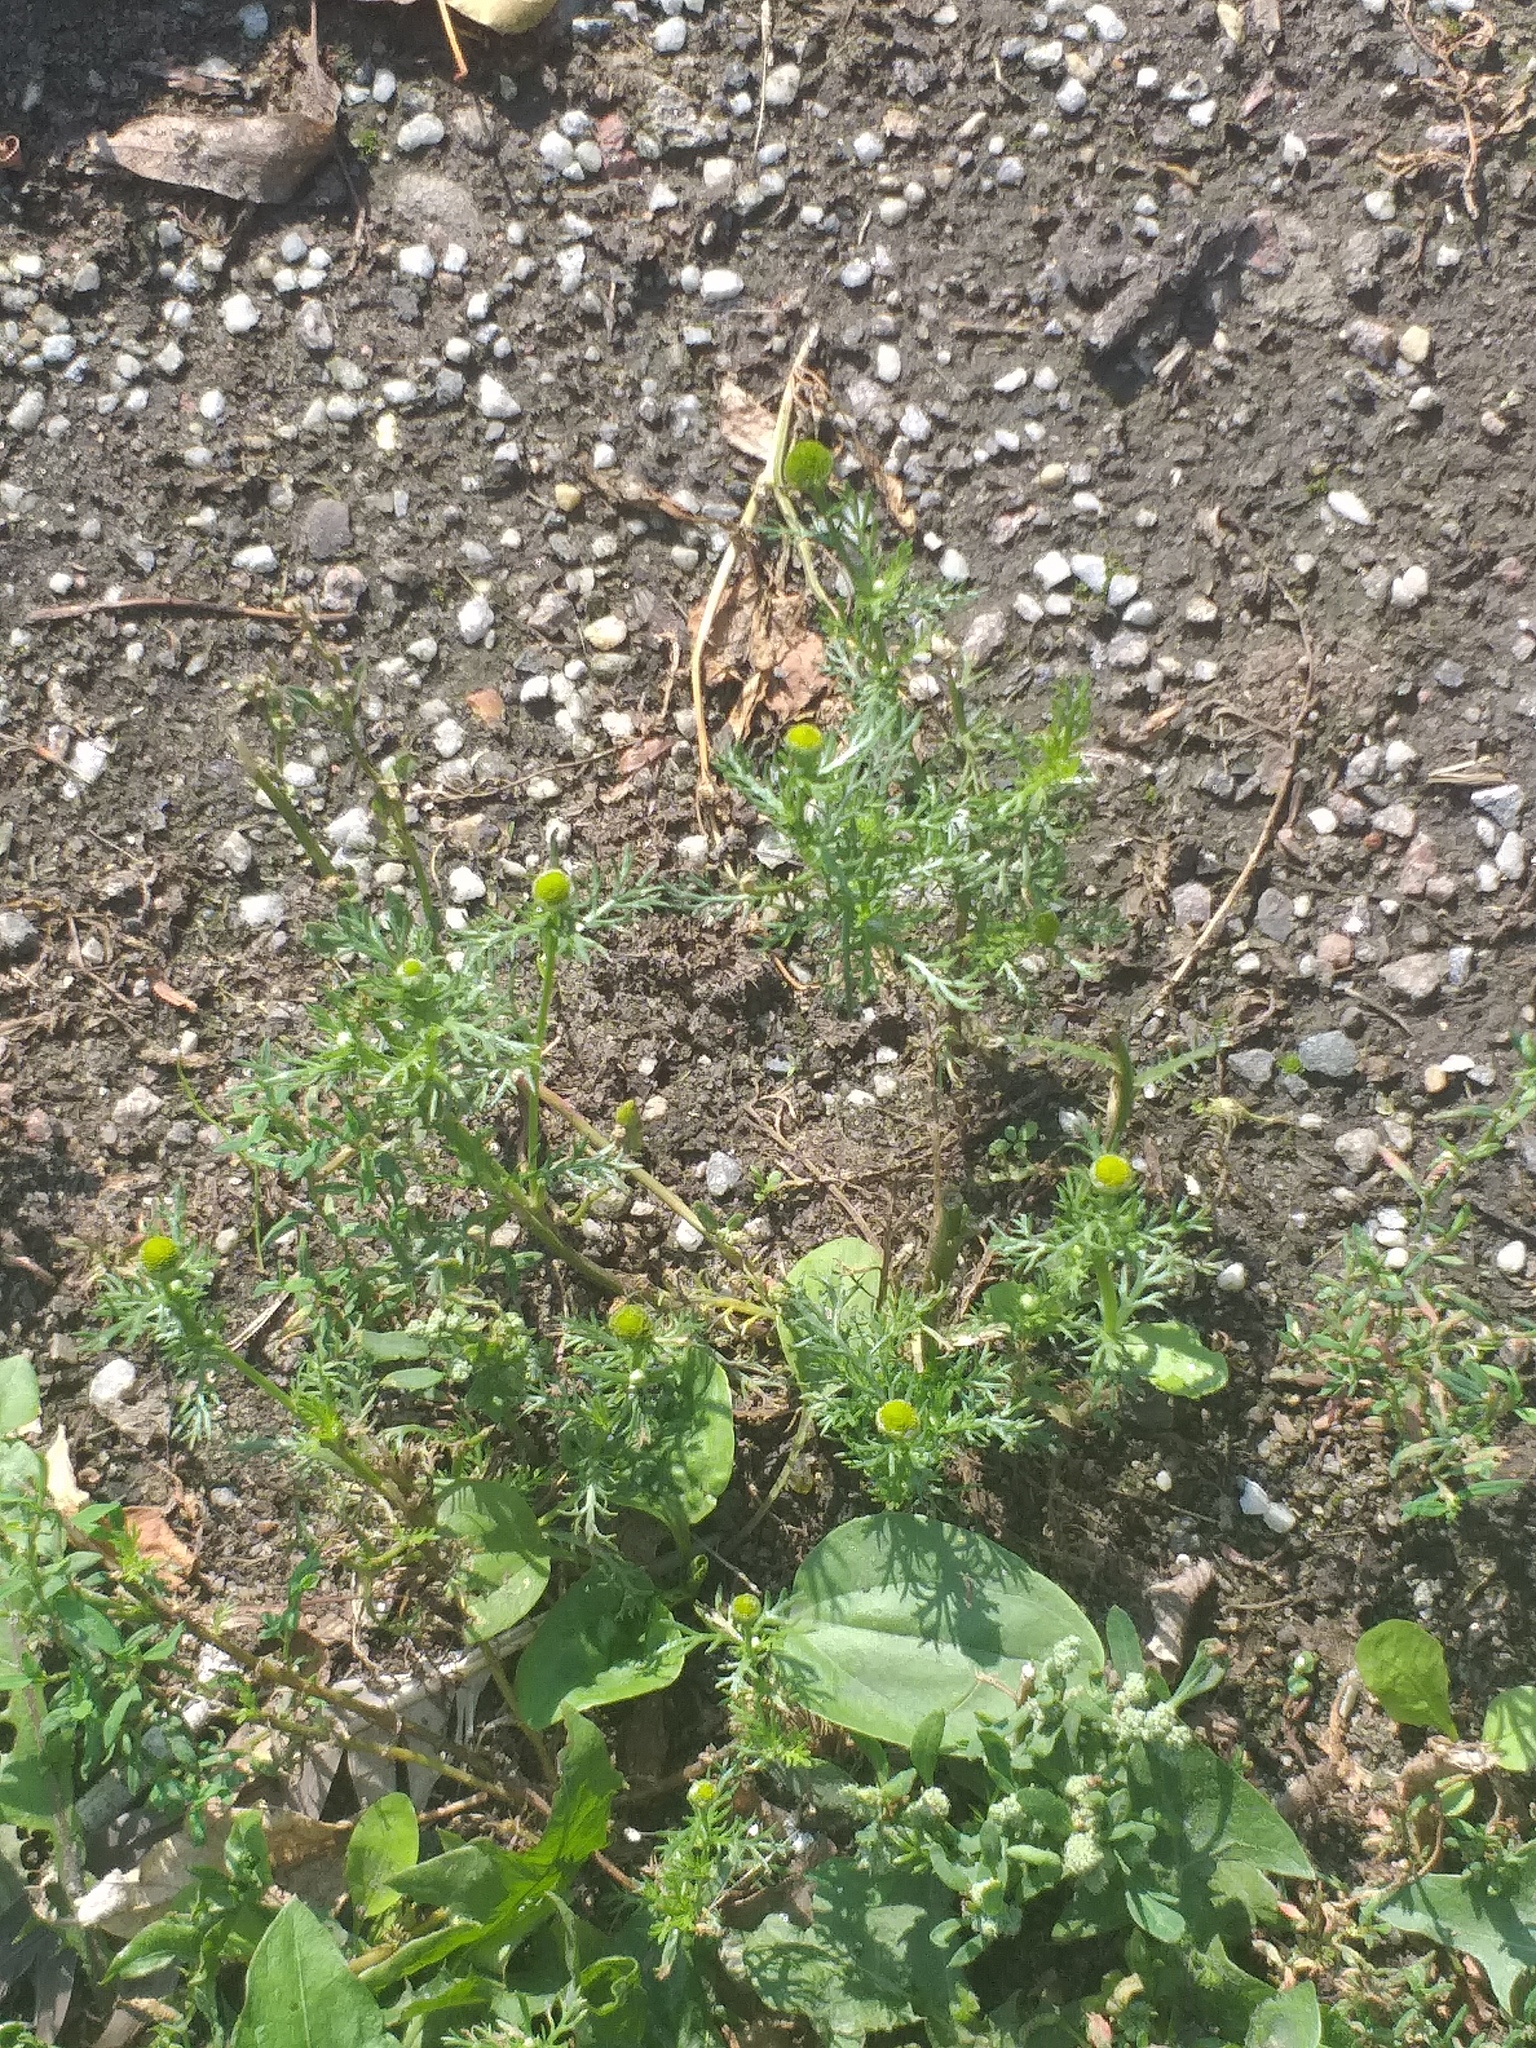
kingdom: Plantae
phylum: Tracheophyta
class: Magnoliopsida
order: Asterales
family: Asteraceae
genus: Matricaria
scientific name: Matricaria discoidea
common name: Disc mayweed
